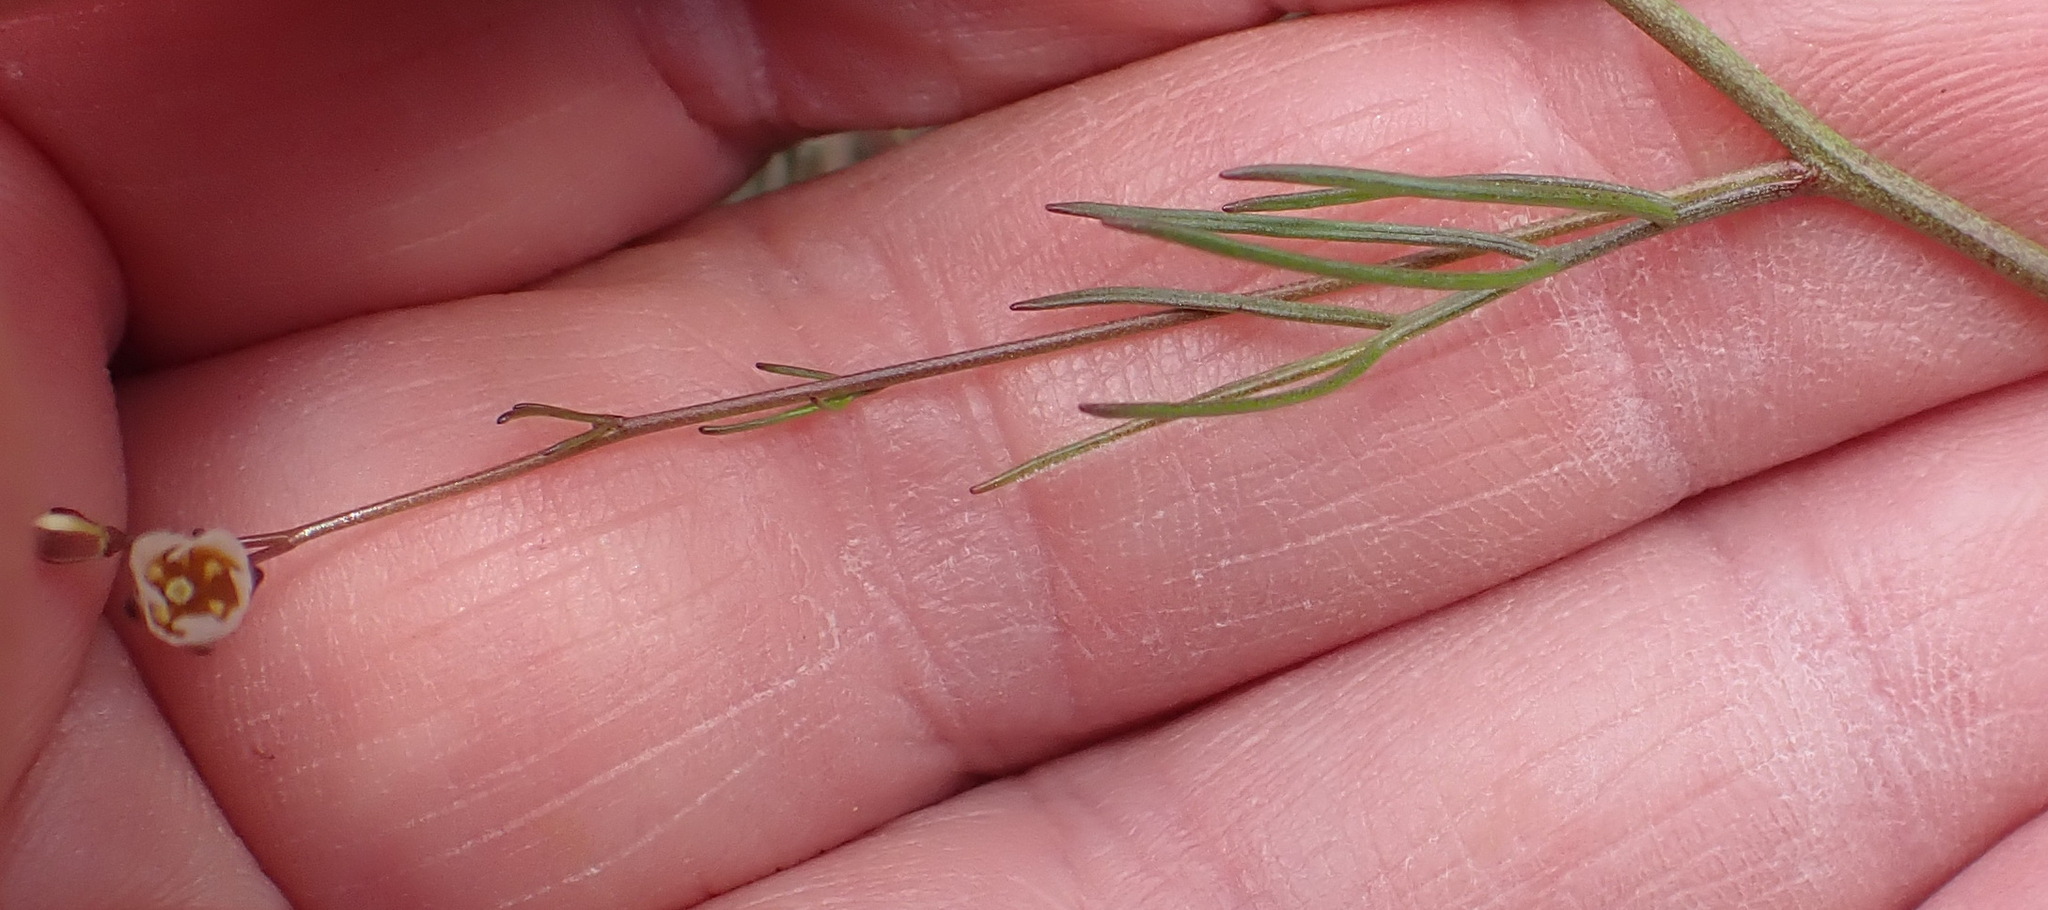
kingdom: Plantae
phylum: Tracheophyta
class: Magnoliopsida
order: Brassicales
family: Brassicaceae
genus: Heliophila
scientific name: Heliophila pendula
